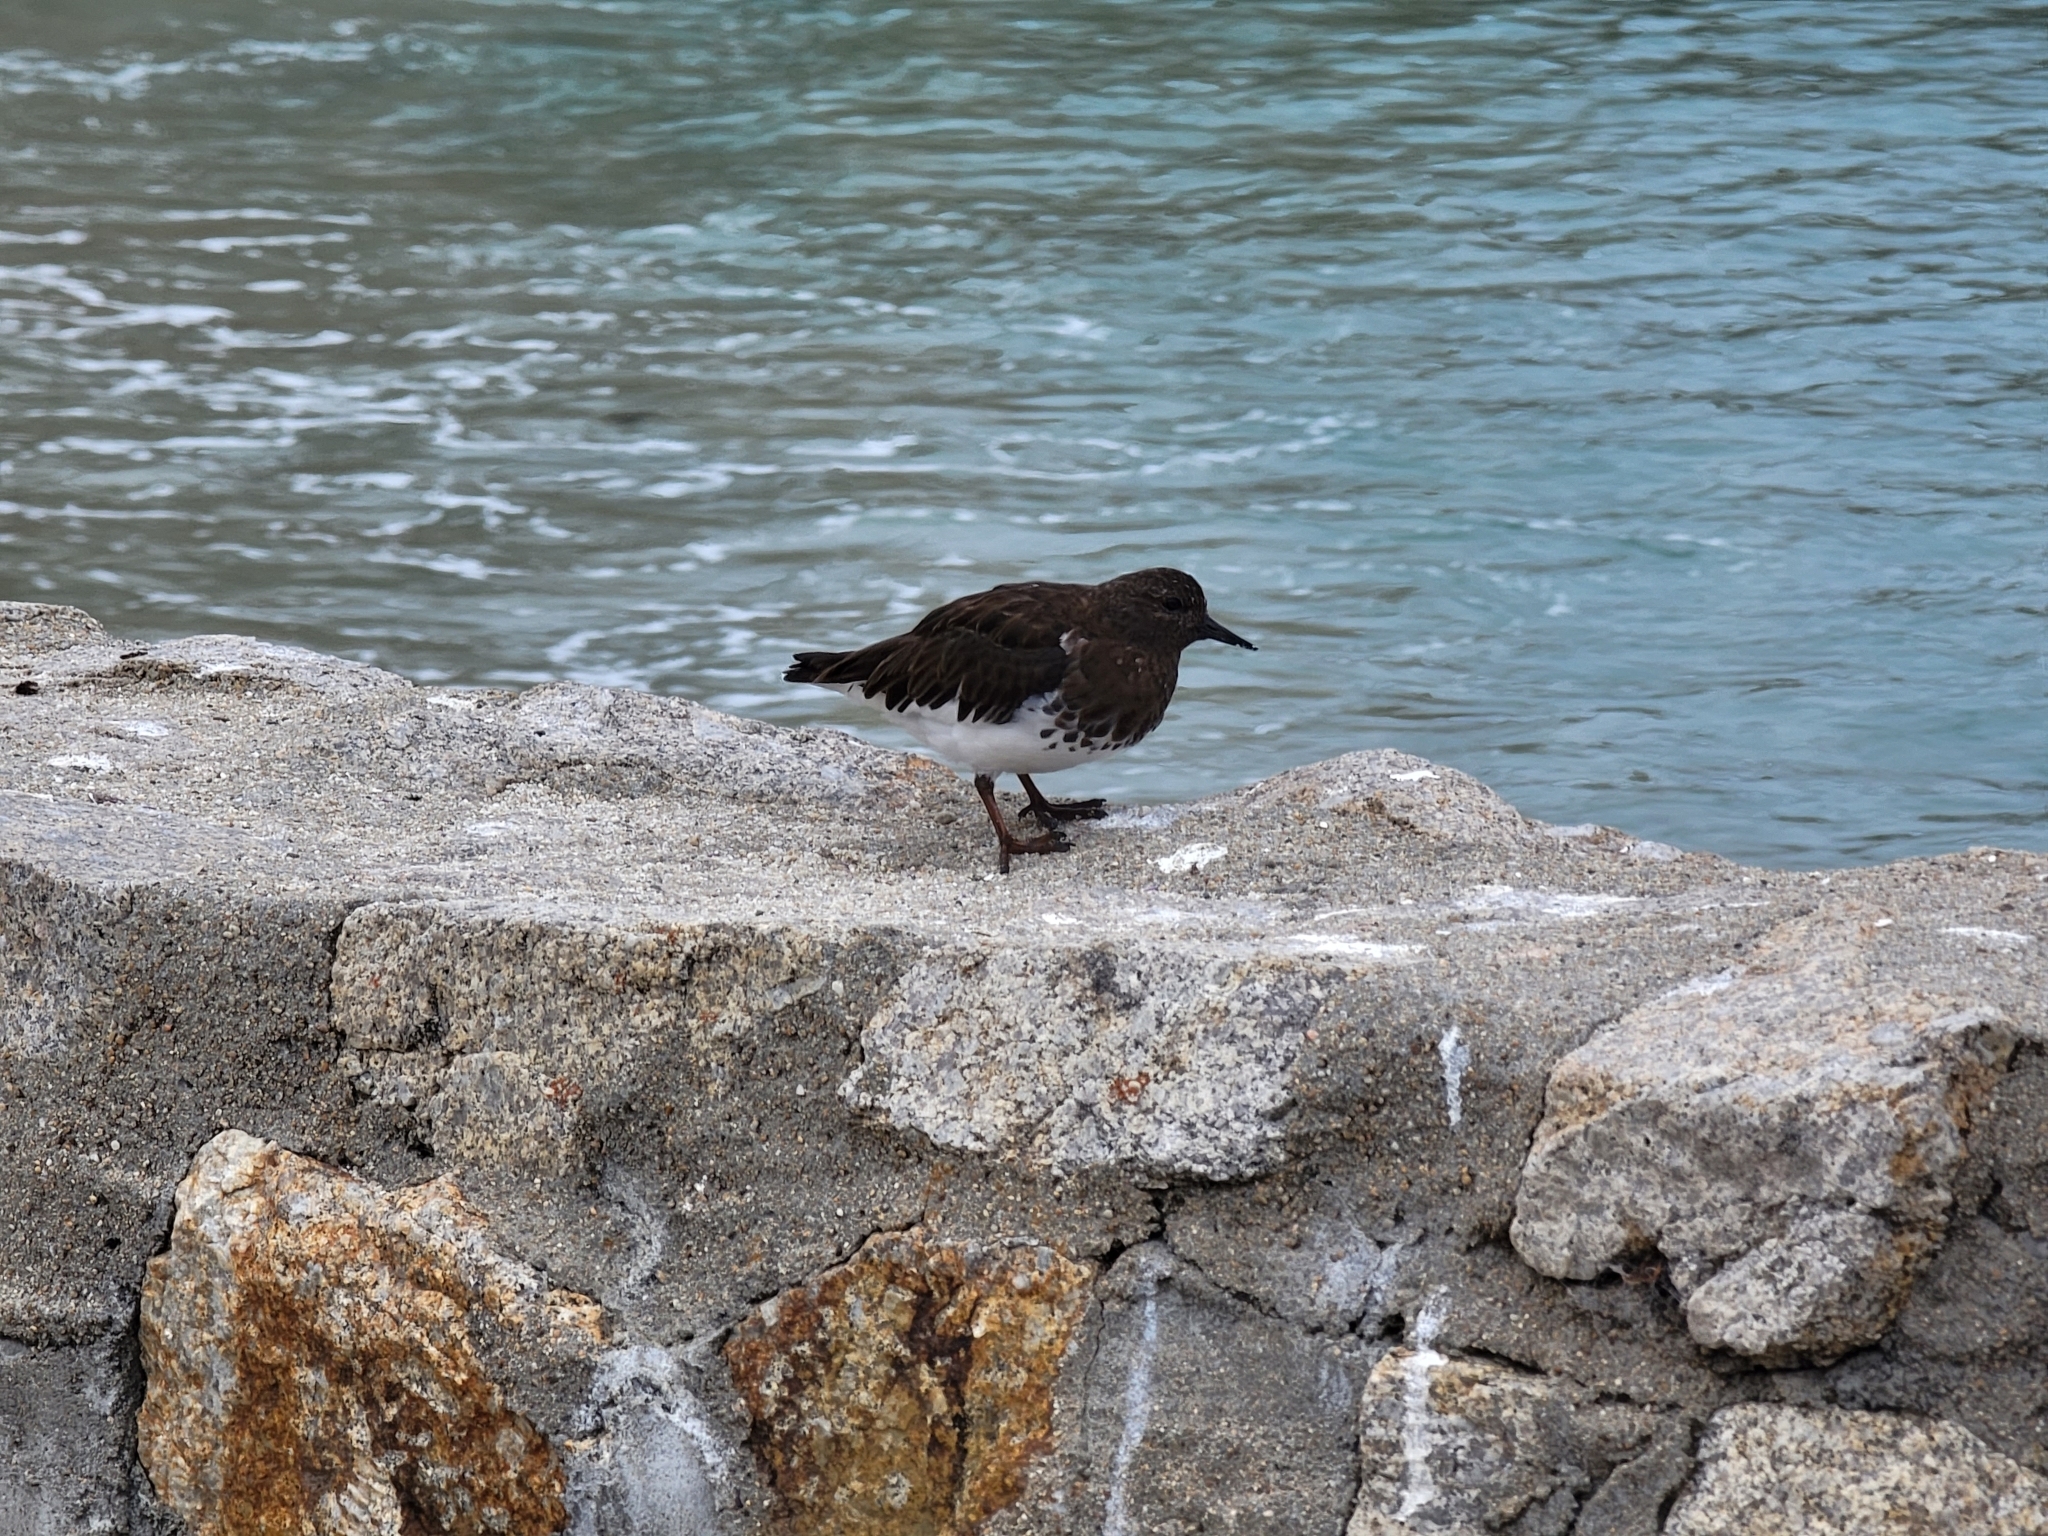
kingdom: Animalia
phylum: Chordata
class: Aves
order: Charadriiformes
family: Scolopacidae
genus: Arenaria
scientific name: Arenaria melanocephala
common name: Black turnstone
